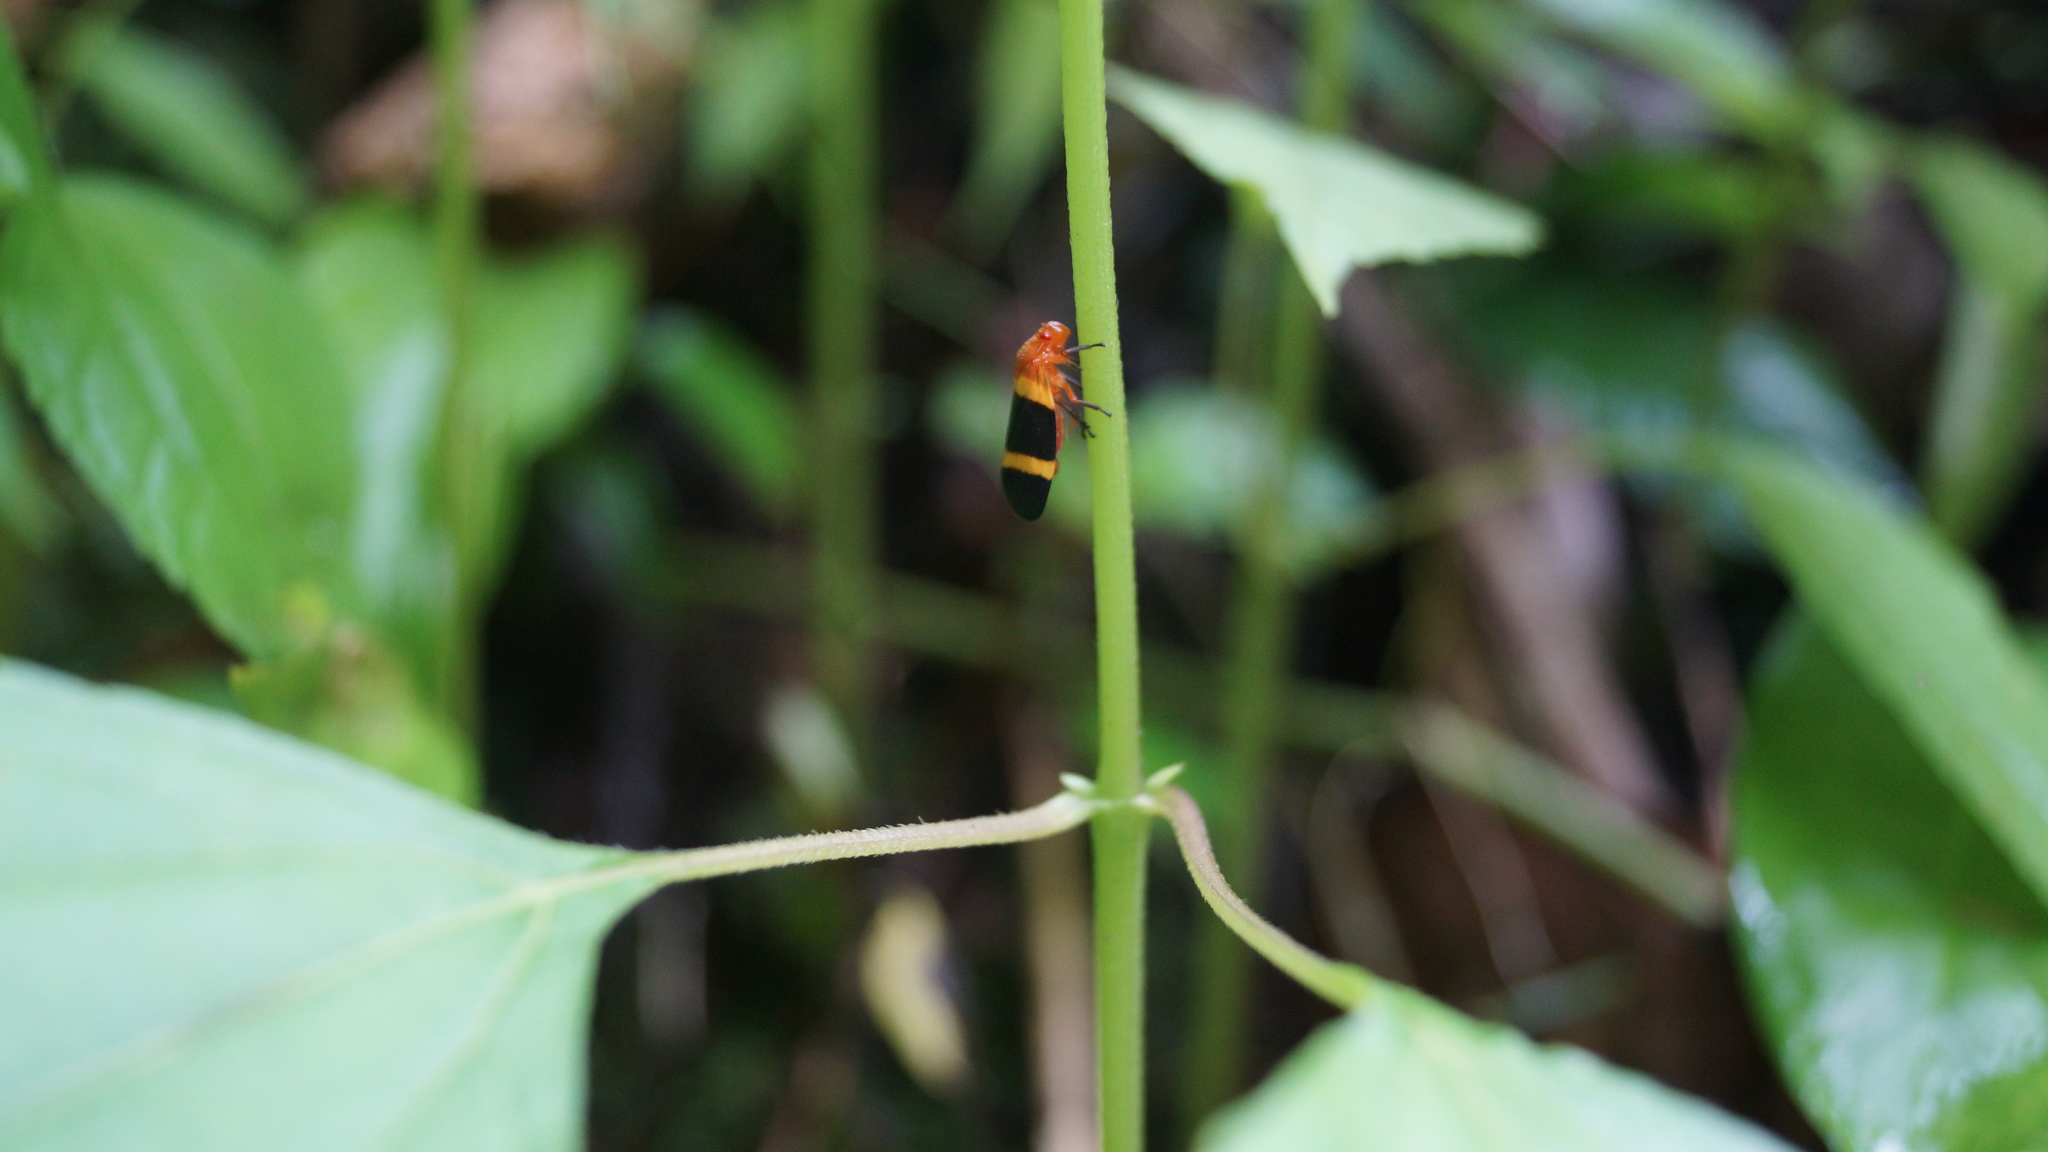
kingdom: Animalia
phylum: Arthropoda
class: Insecta
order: Hemiptera
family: Cercopidae
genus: Sphenorhina
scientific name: Sphenorhina rubra
